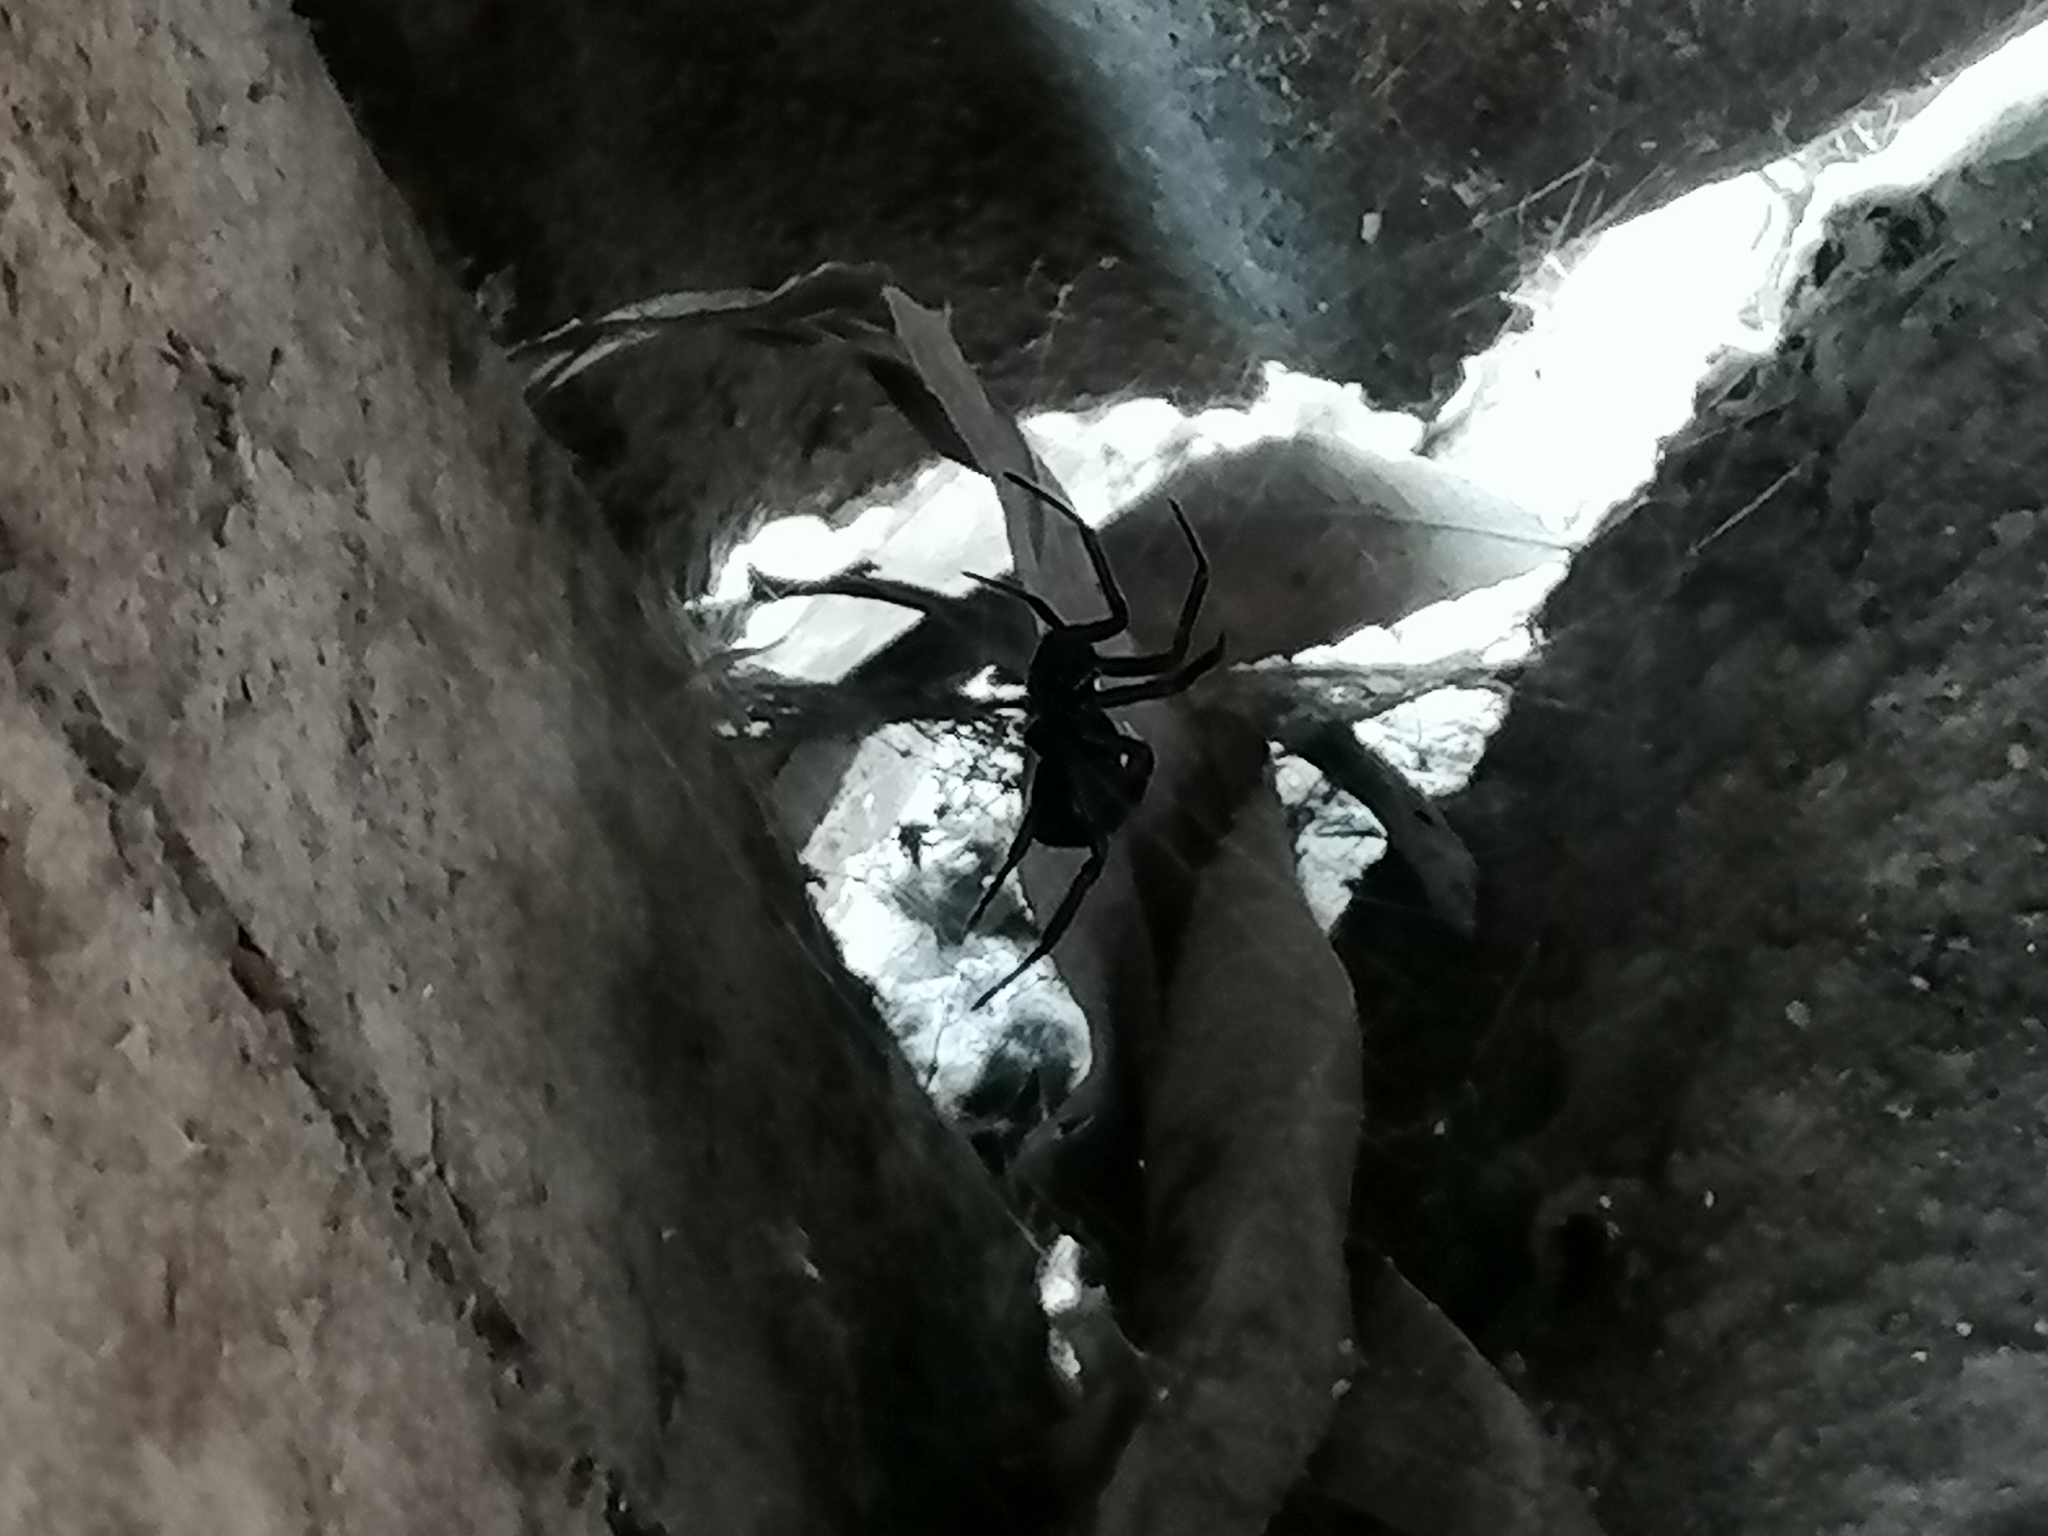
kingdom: Animalia
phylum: Arthropoda
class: Arachnida
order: Araneae
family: Theridiidae
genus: Steatoda
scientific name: Steatoda paykulliana
